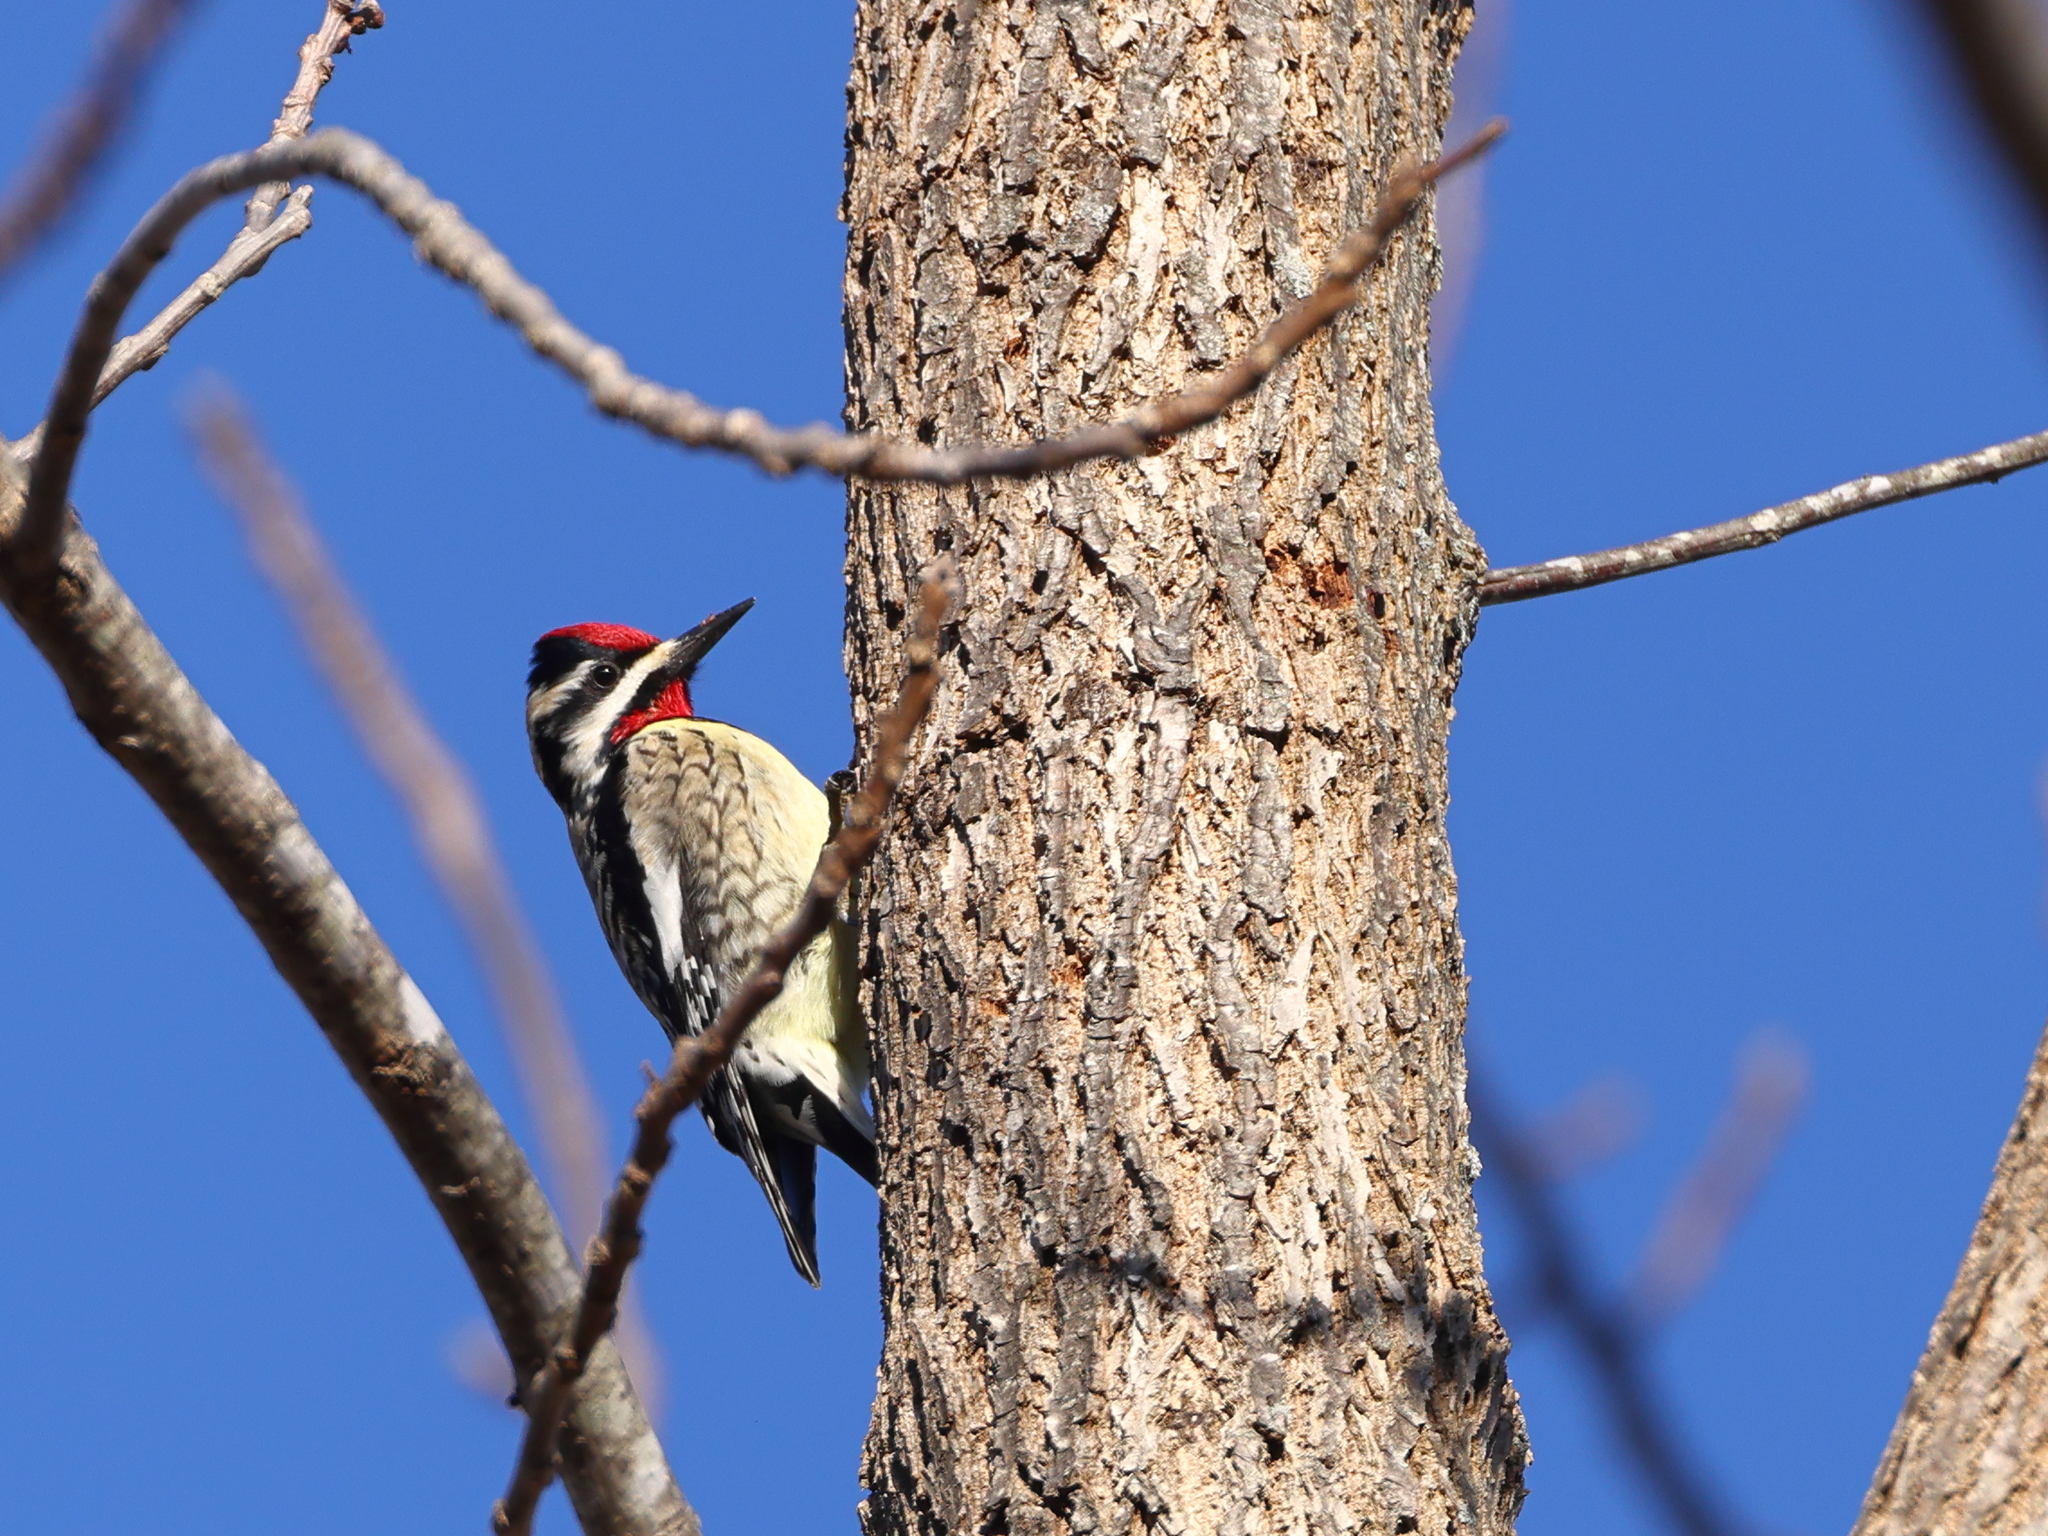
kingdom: Animalia
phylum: Chordata
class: Aves
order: Piciformes
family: Picidae
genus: Sphyrapicus
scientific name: Sphyrapicus varius
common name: Yellow-bellied sapsucker
